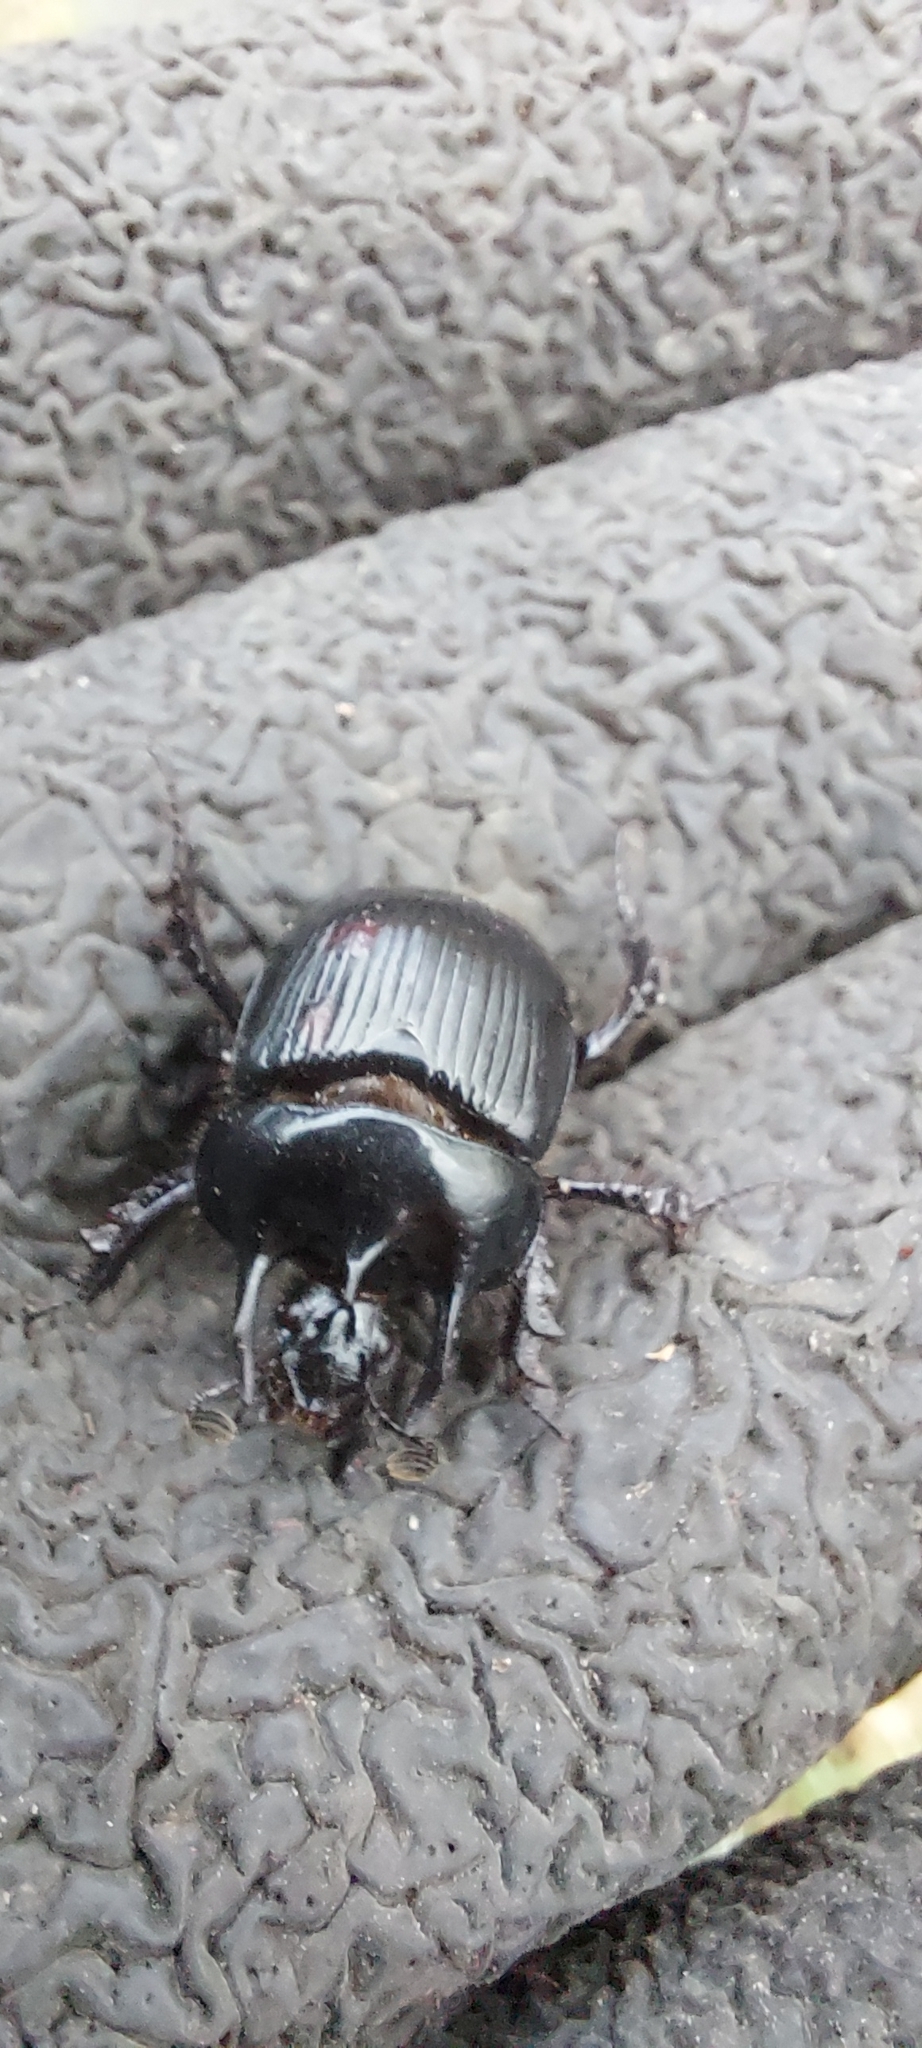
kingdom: Animalia
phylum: Arthropoda
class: Insecta
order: Coleoptera
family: Geotrupidae
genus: Typhaeus
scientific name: Typhaeus typhoeus
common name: Minotaur beetle
